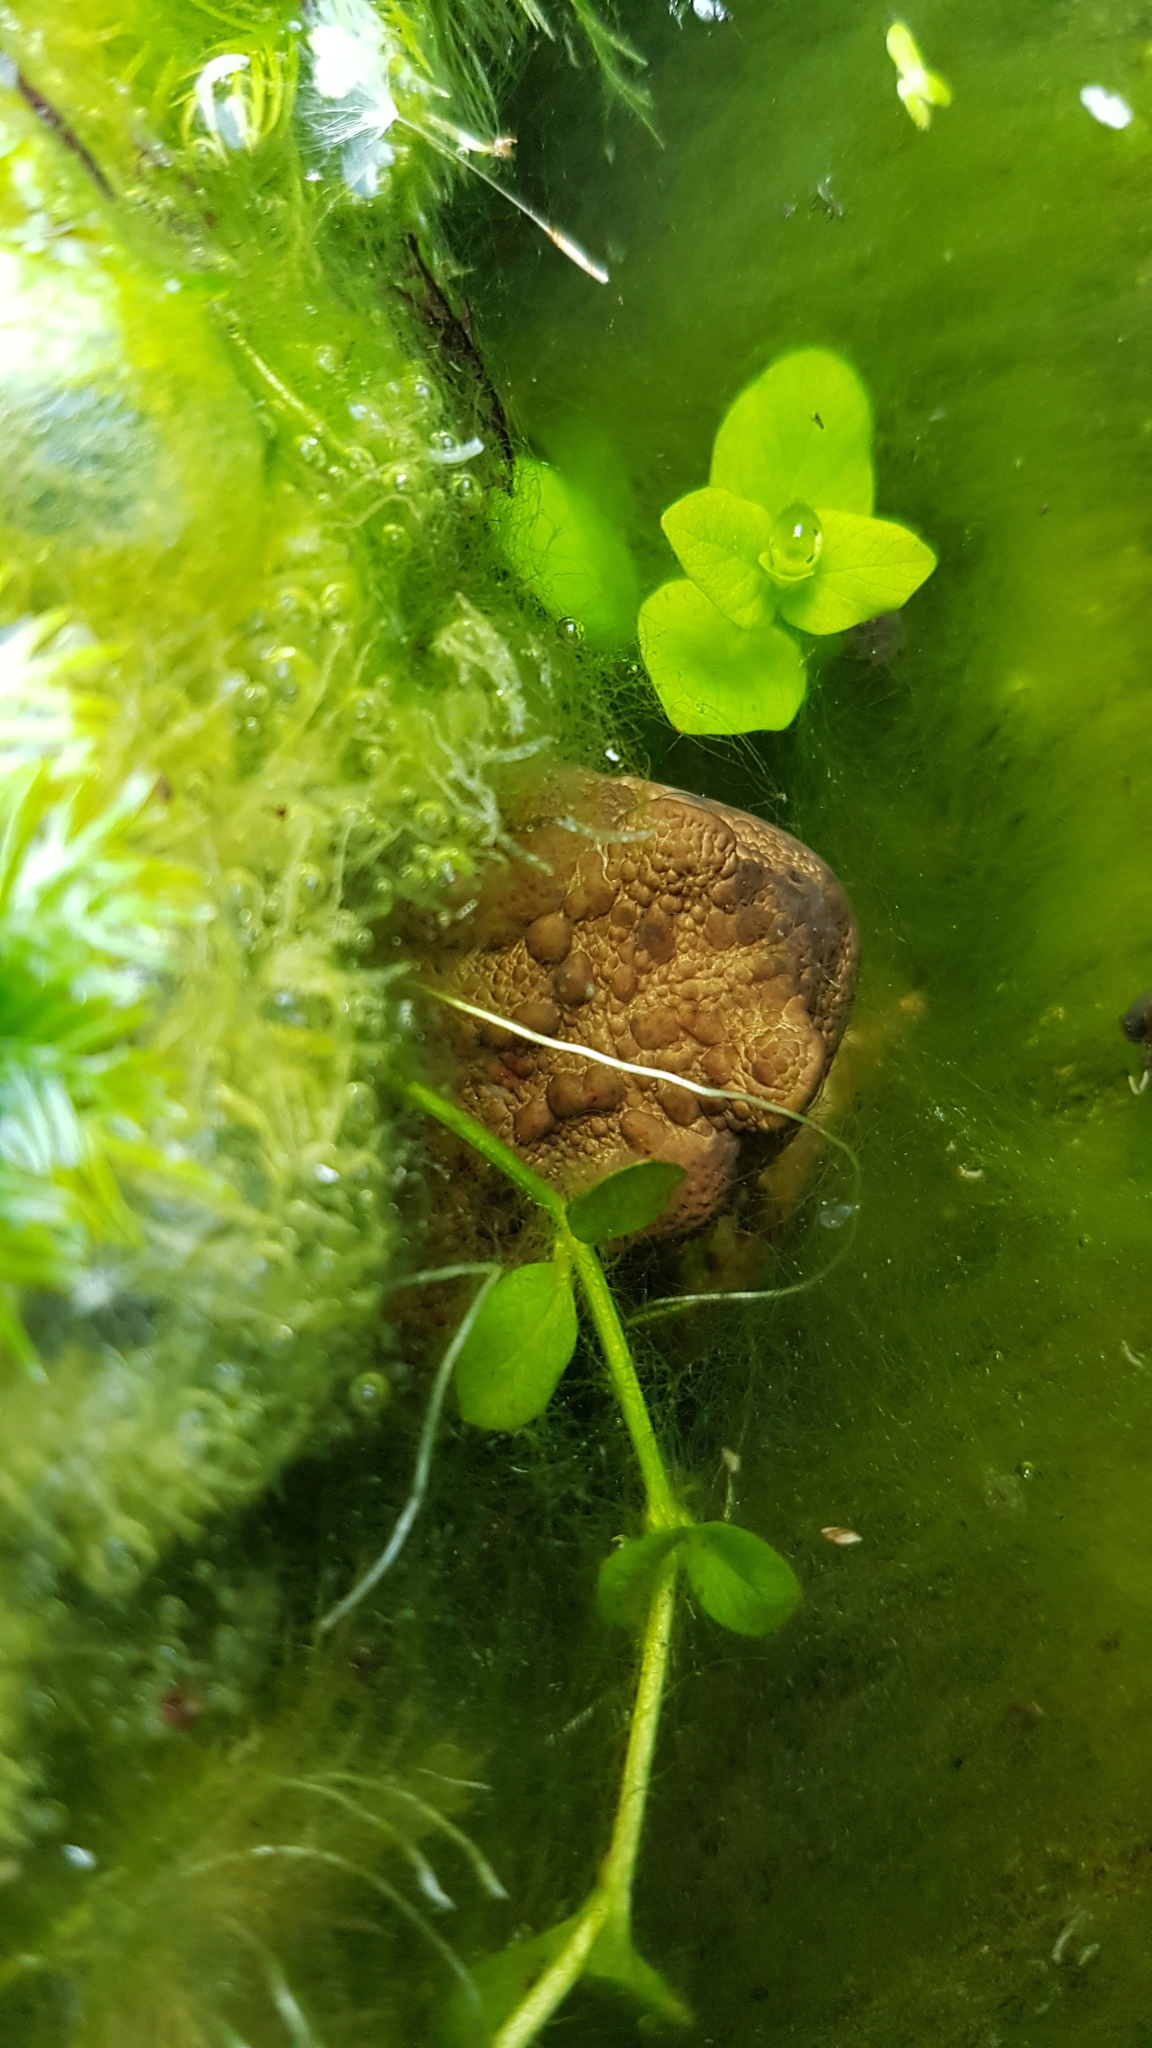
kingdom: Animalia
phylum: Chordata
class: Amphibia
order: Anura
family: Bufonidae
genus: Bufo
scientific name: Bufo bufo
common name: Common toad
